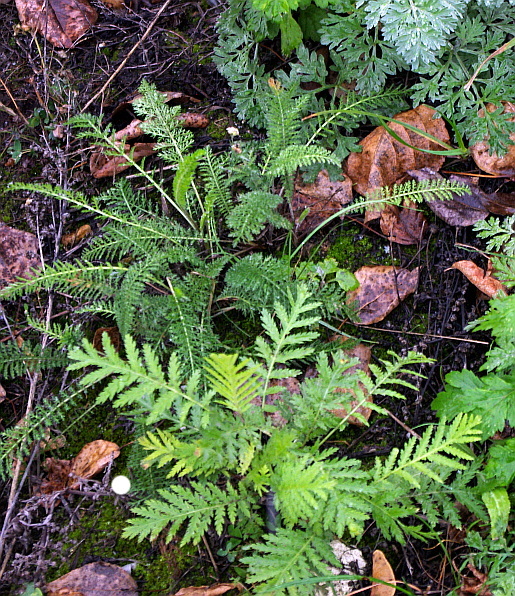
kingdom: Plantae
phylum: Tracheophyta
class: Magnoliopsida
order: Asterales
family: Asteraceae
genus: Tanacetum
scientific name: Tanacetum vulgare
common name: Common tansy
